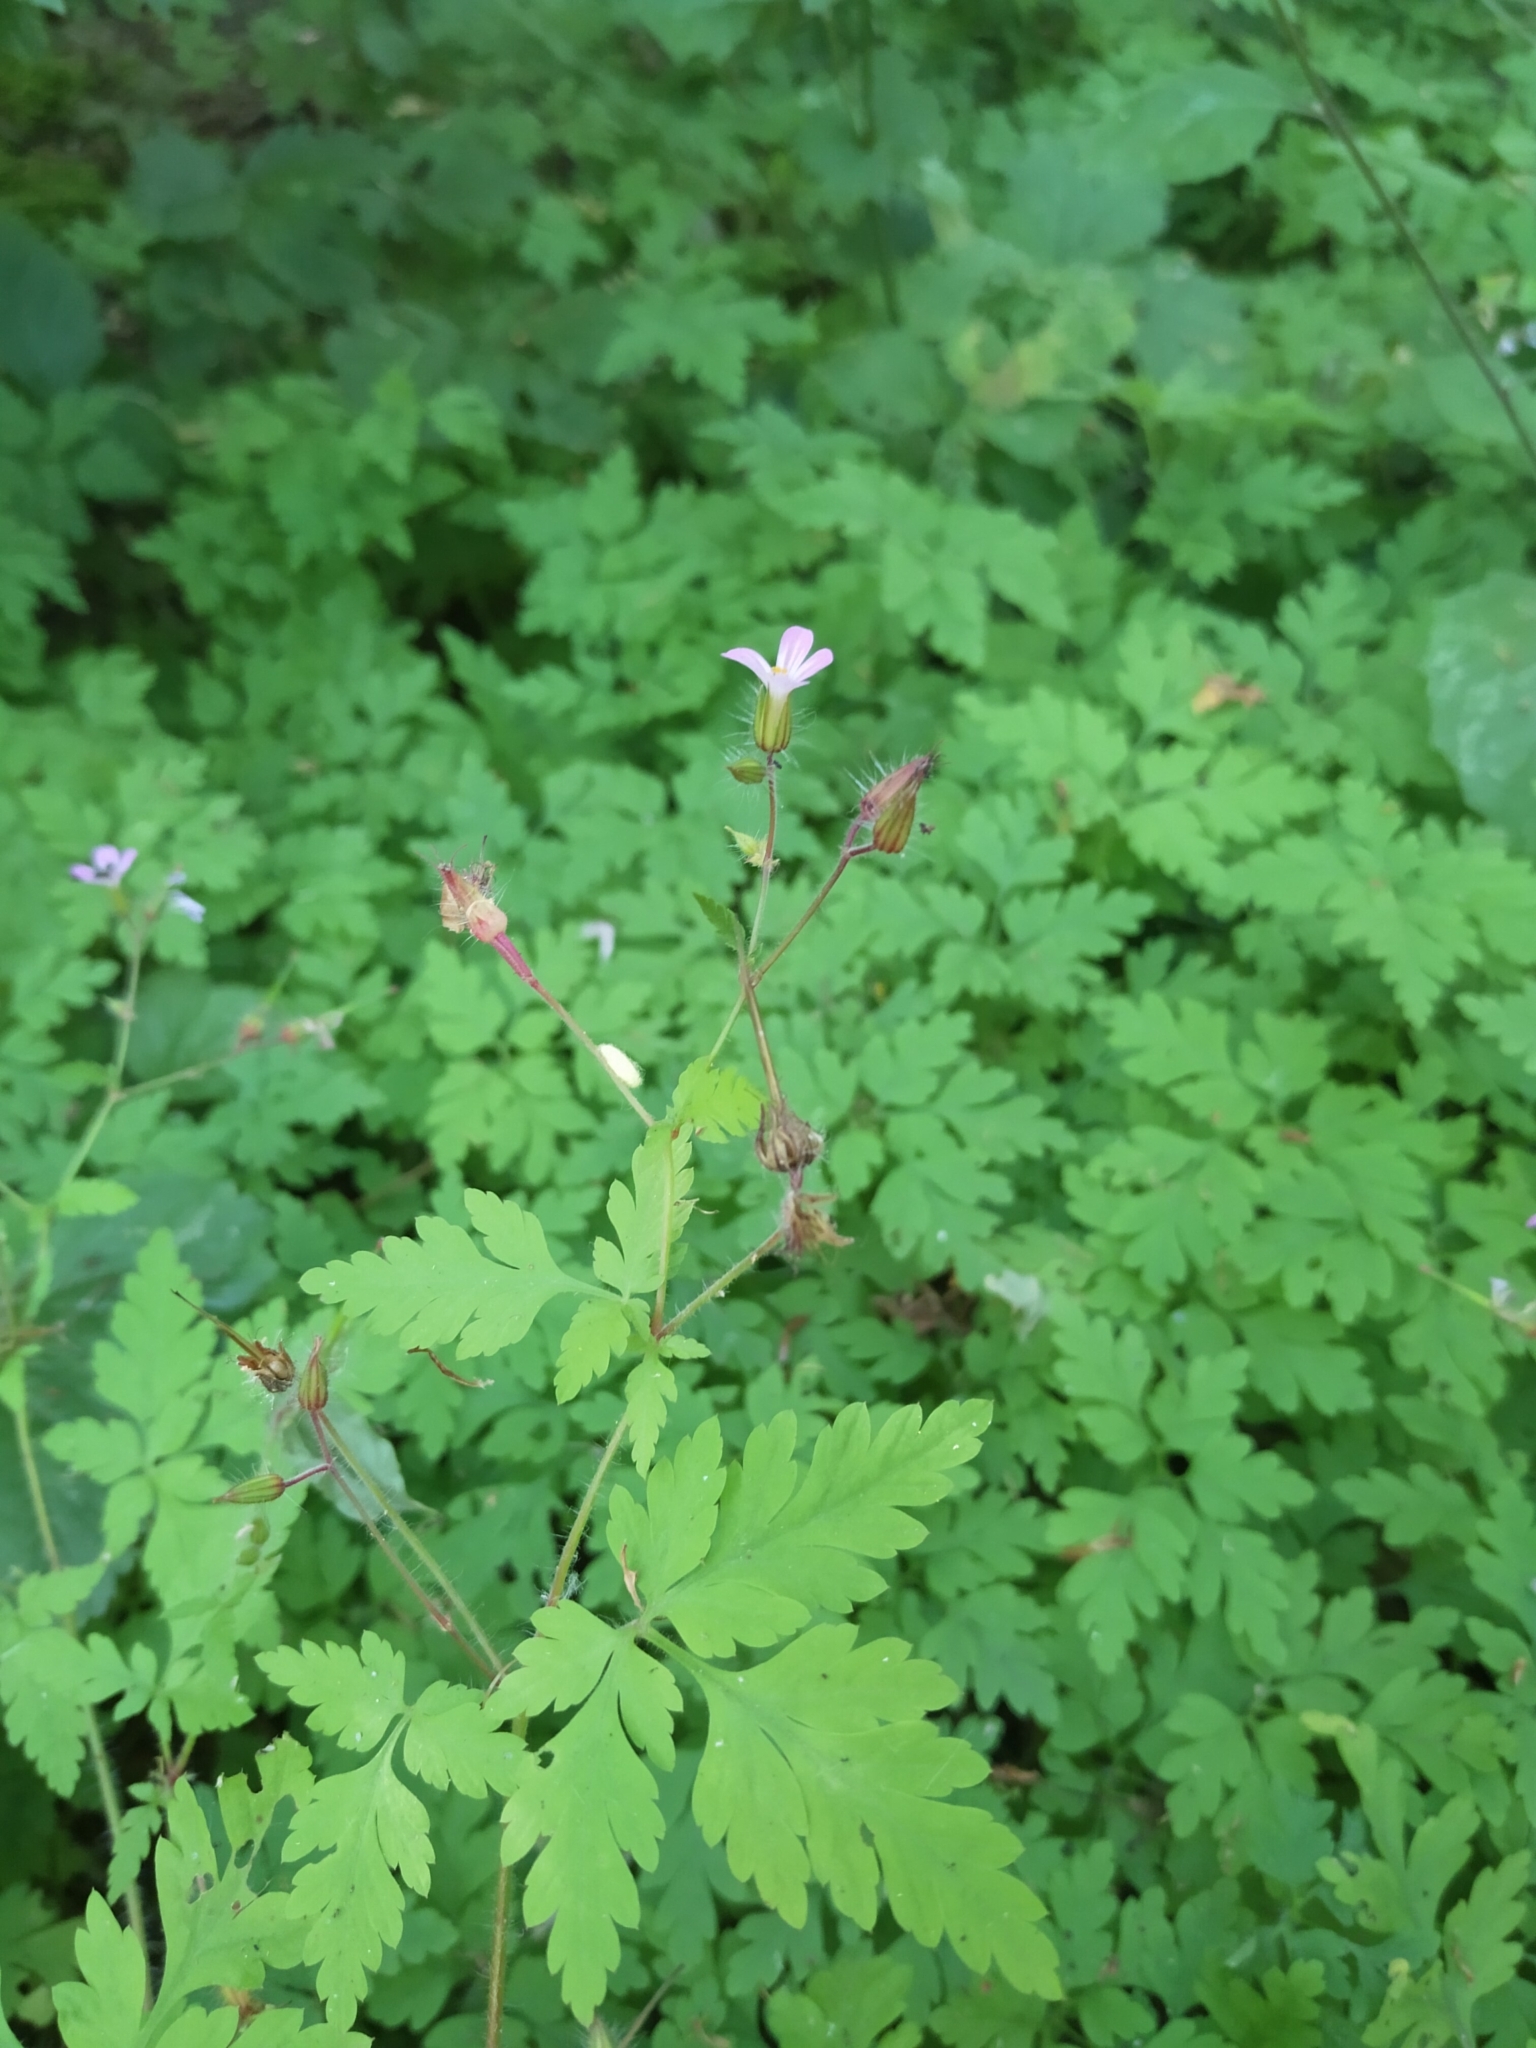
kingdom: Plantae
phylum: Tracheophyta
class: Magnoliopsida
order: Geraniales
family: Geraniaceae
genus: Geranium
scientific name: Geranium robertianum
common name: Herb-robert
